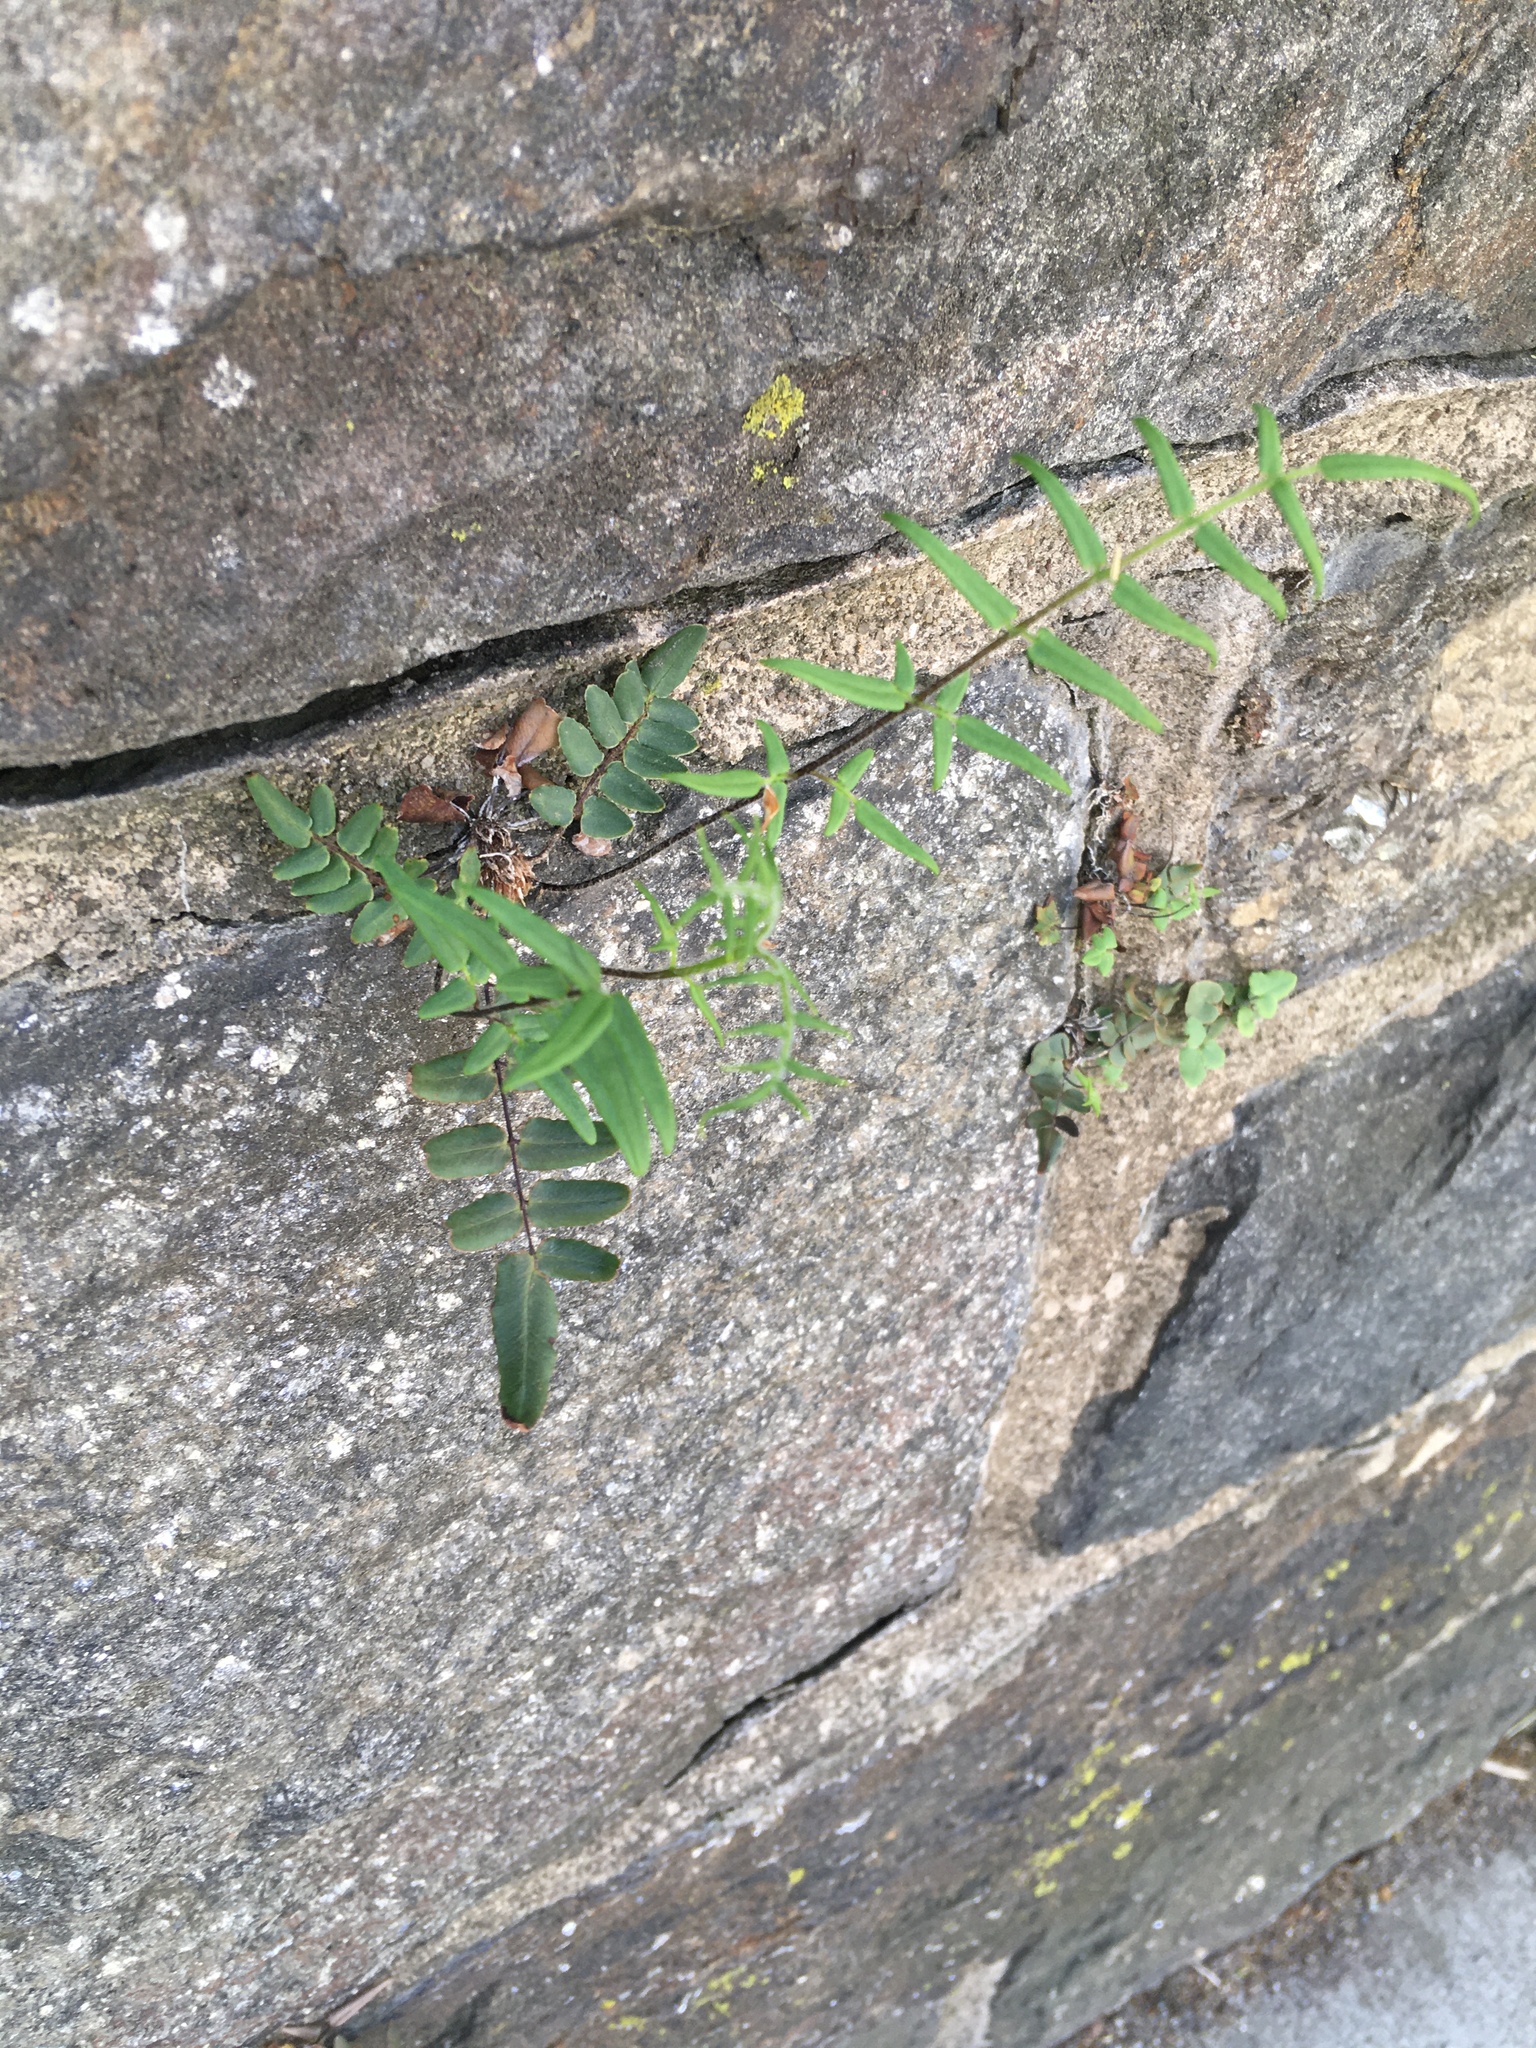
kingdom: Plantae
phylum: Tracheophyta
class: Polypodiopsida
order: Polypodiales
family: Pteridaceae
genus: Pellaea
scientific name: Pellaea atropurpurea
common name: Hairy cliffbrake
